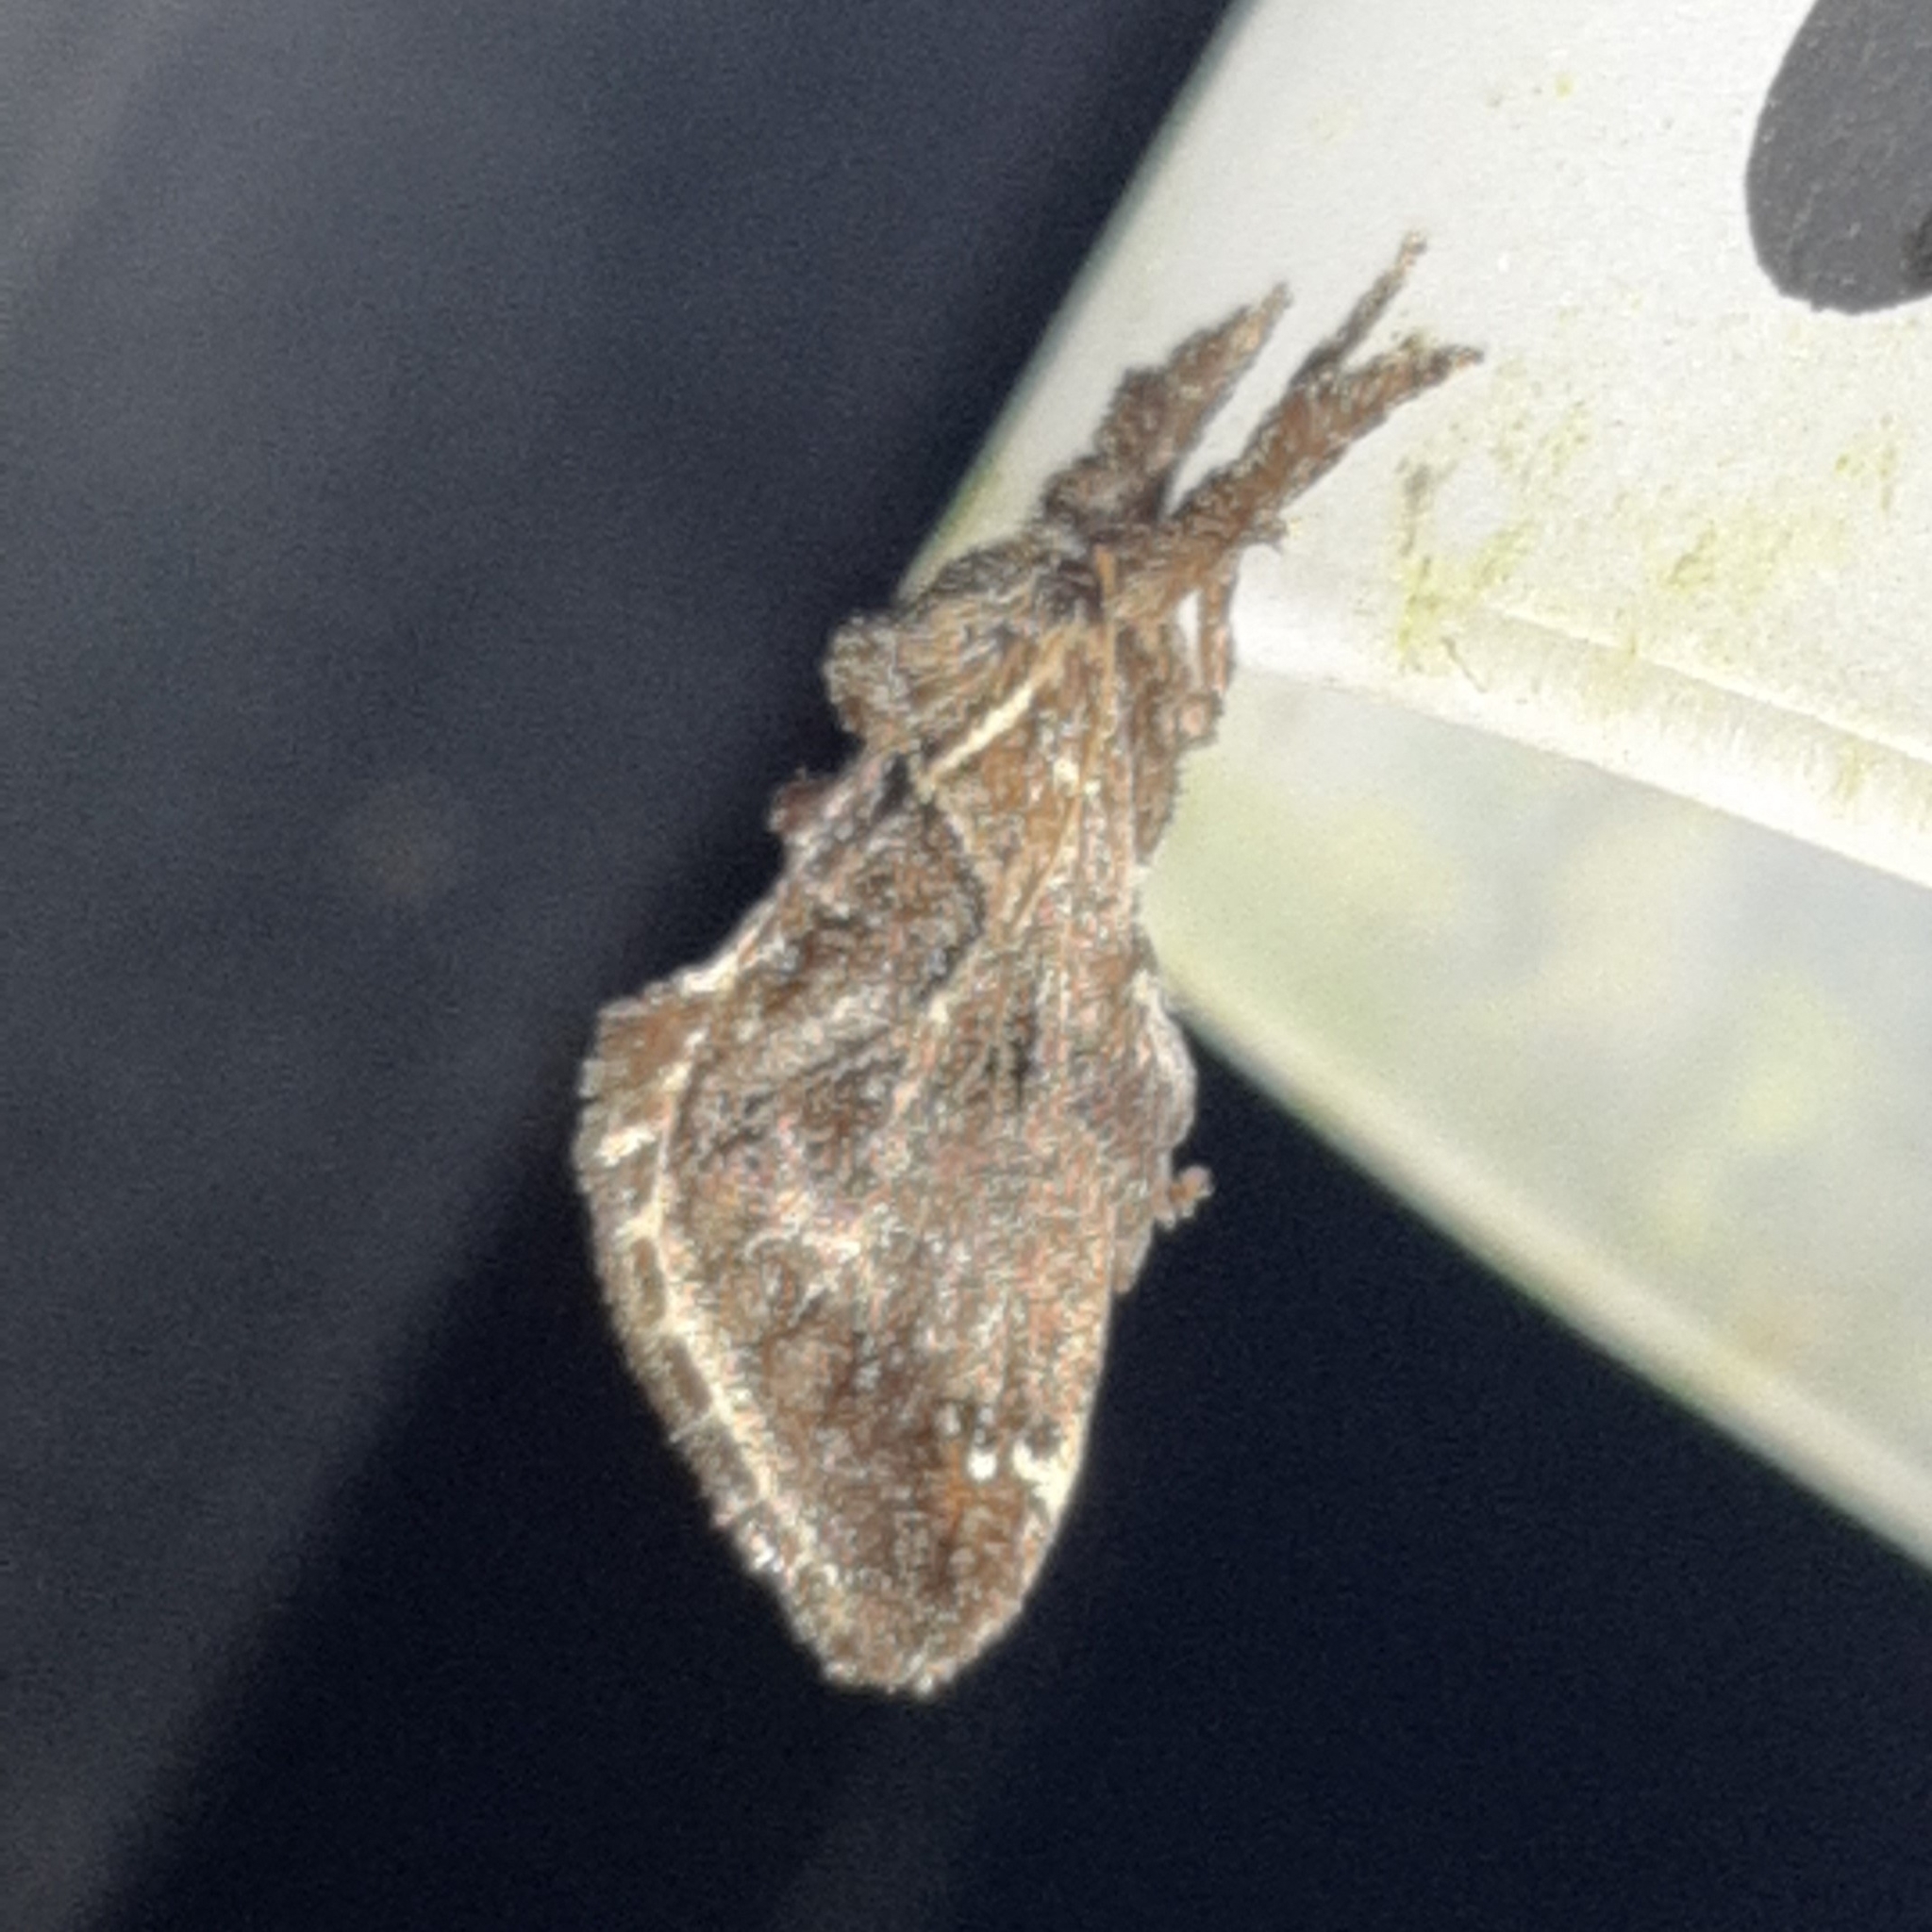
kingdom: Animalia
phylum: Arthropoda
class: Insecta
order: Lepidoptera
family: Limacodidae
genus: Euclea
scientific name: Euclea plugma
